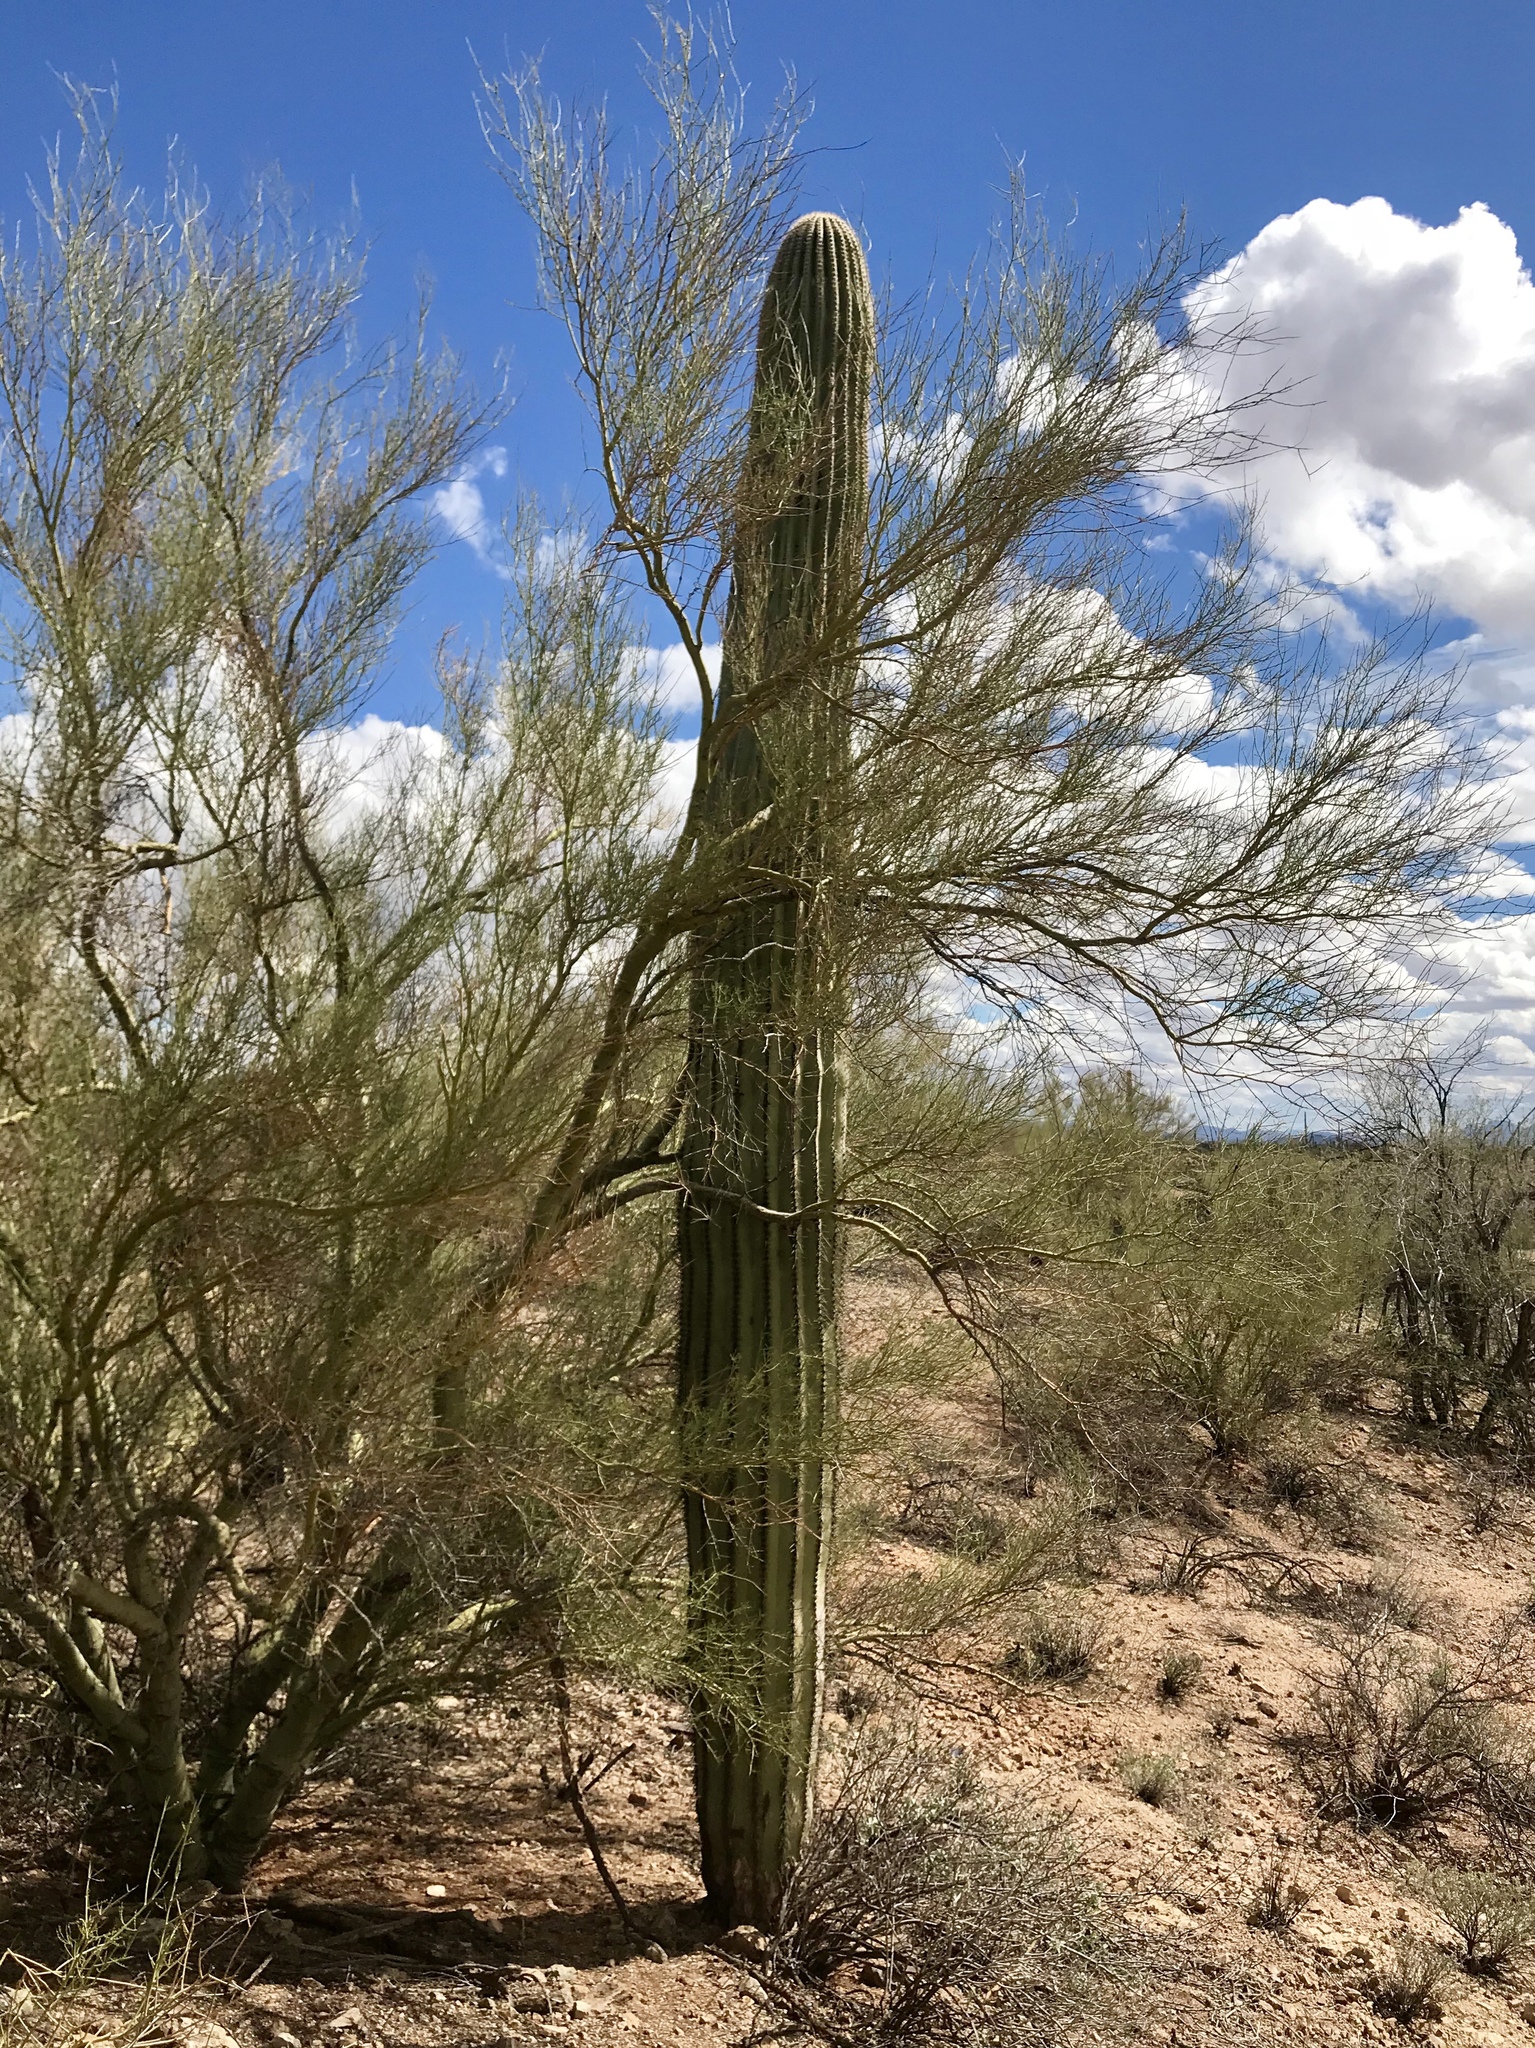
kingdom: Plantae
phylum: Tracheophyta
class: Magnoliopsida
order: Caryophyllales
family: Cactaceae
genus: Carnegiea
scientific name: Carnegiea gigantea
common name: Saguaro
